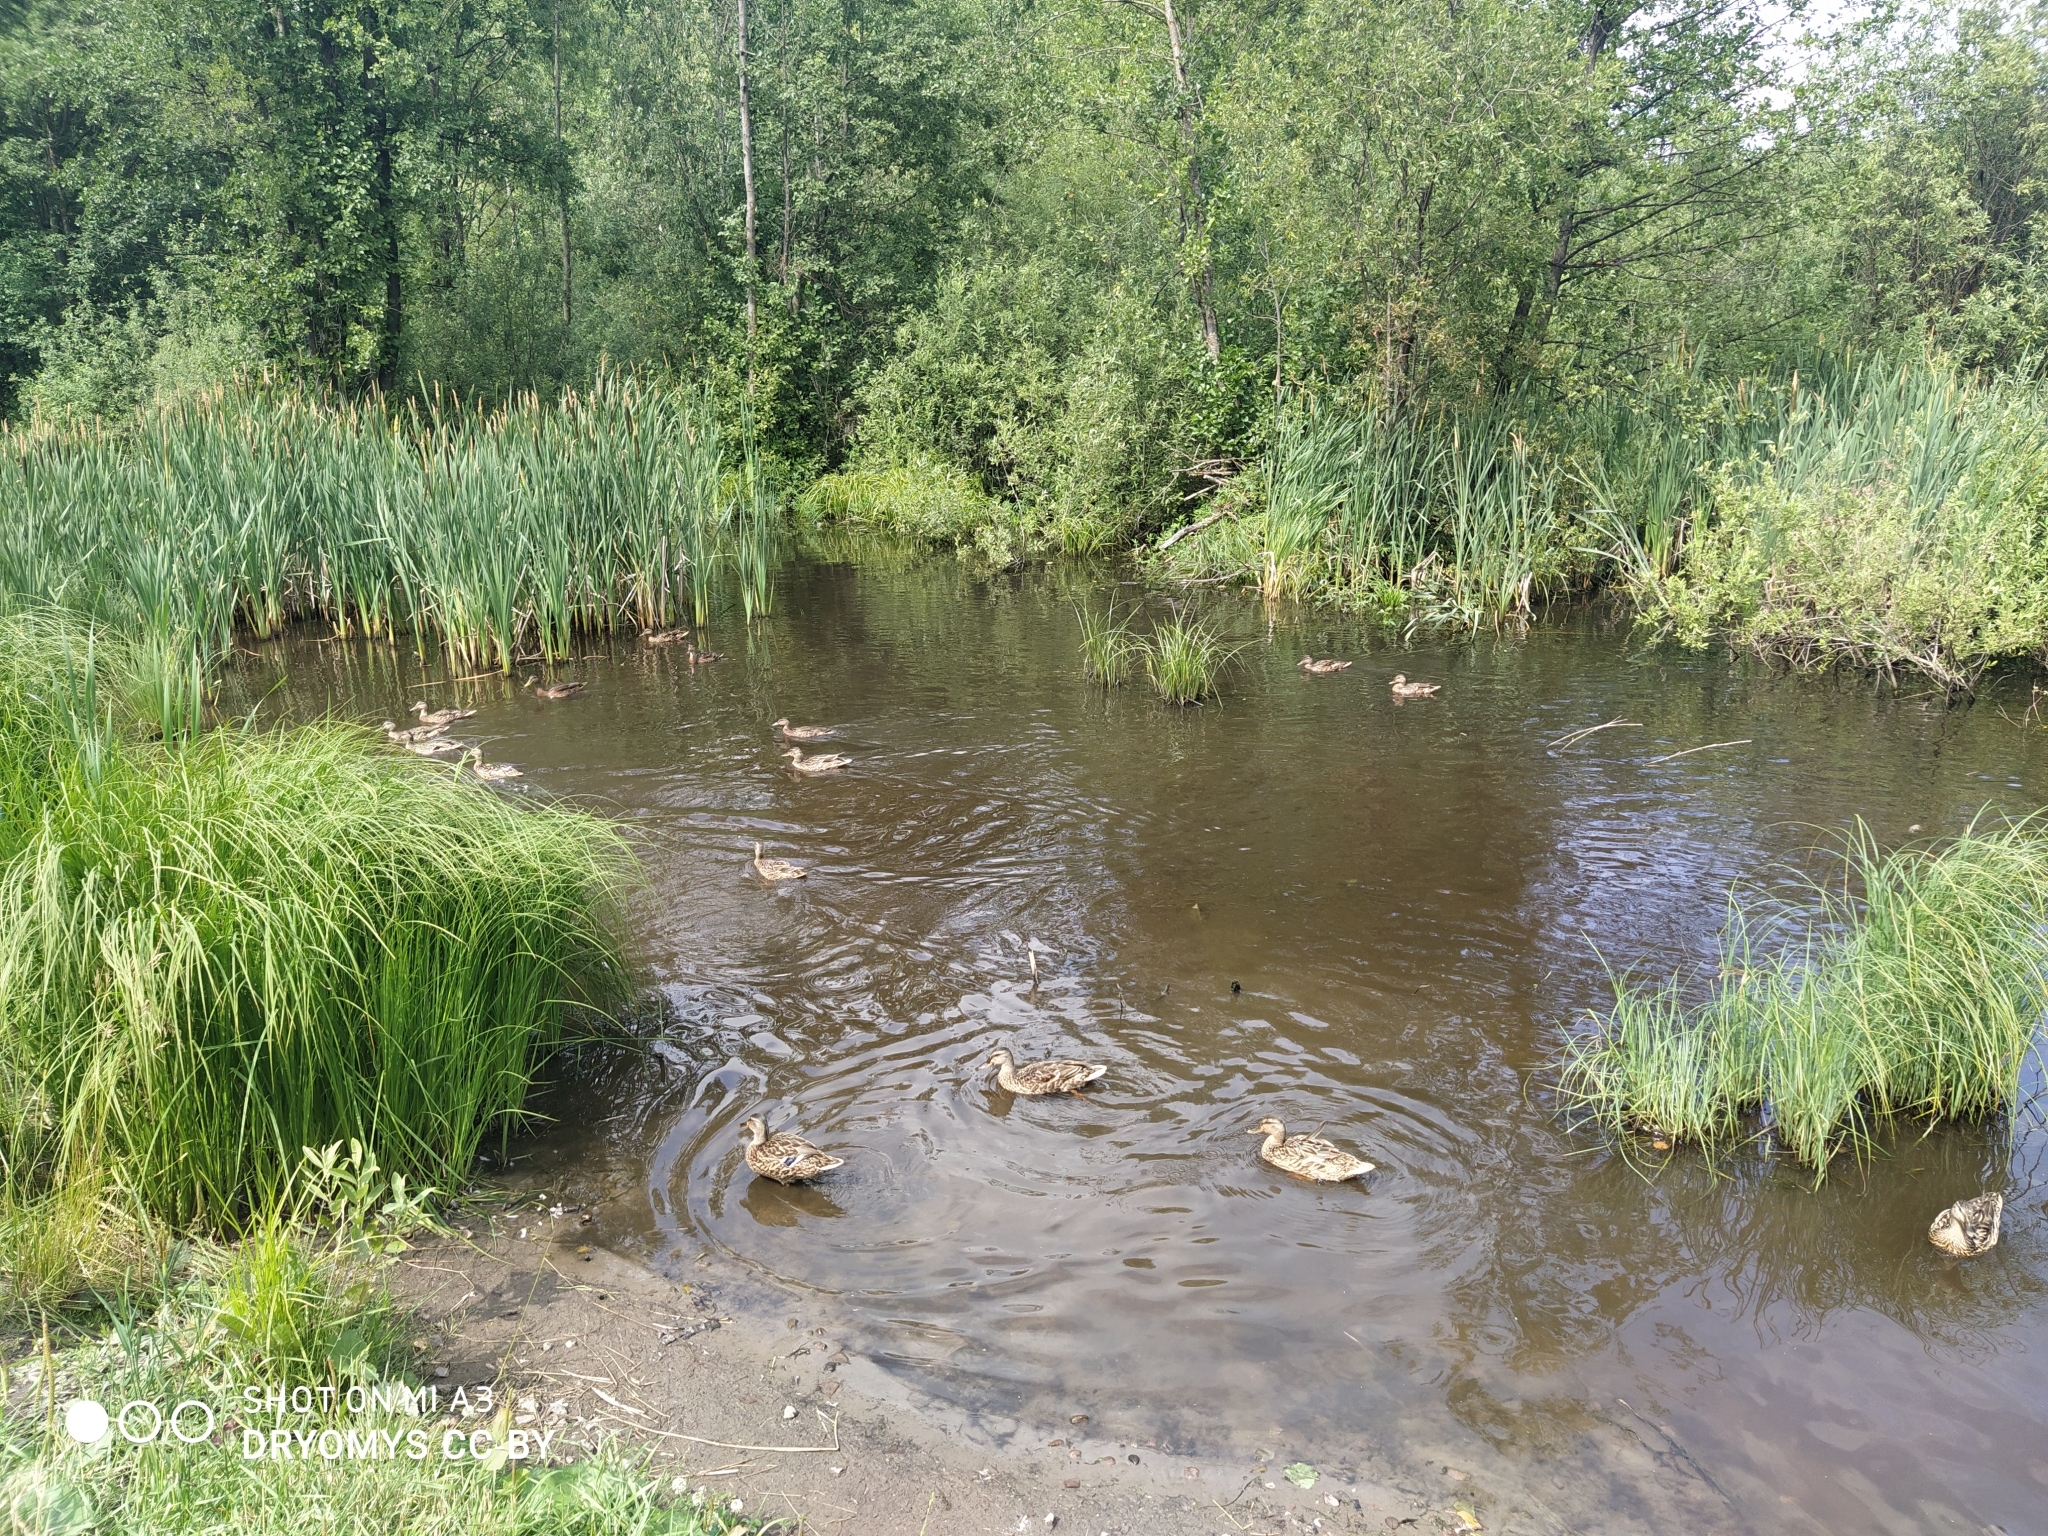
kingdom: Animalia
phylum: Chordata
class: Aves
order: Anseriformes
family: Anatidae
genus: Anas
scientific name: Anas platyrhynchos
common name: Mallard
